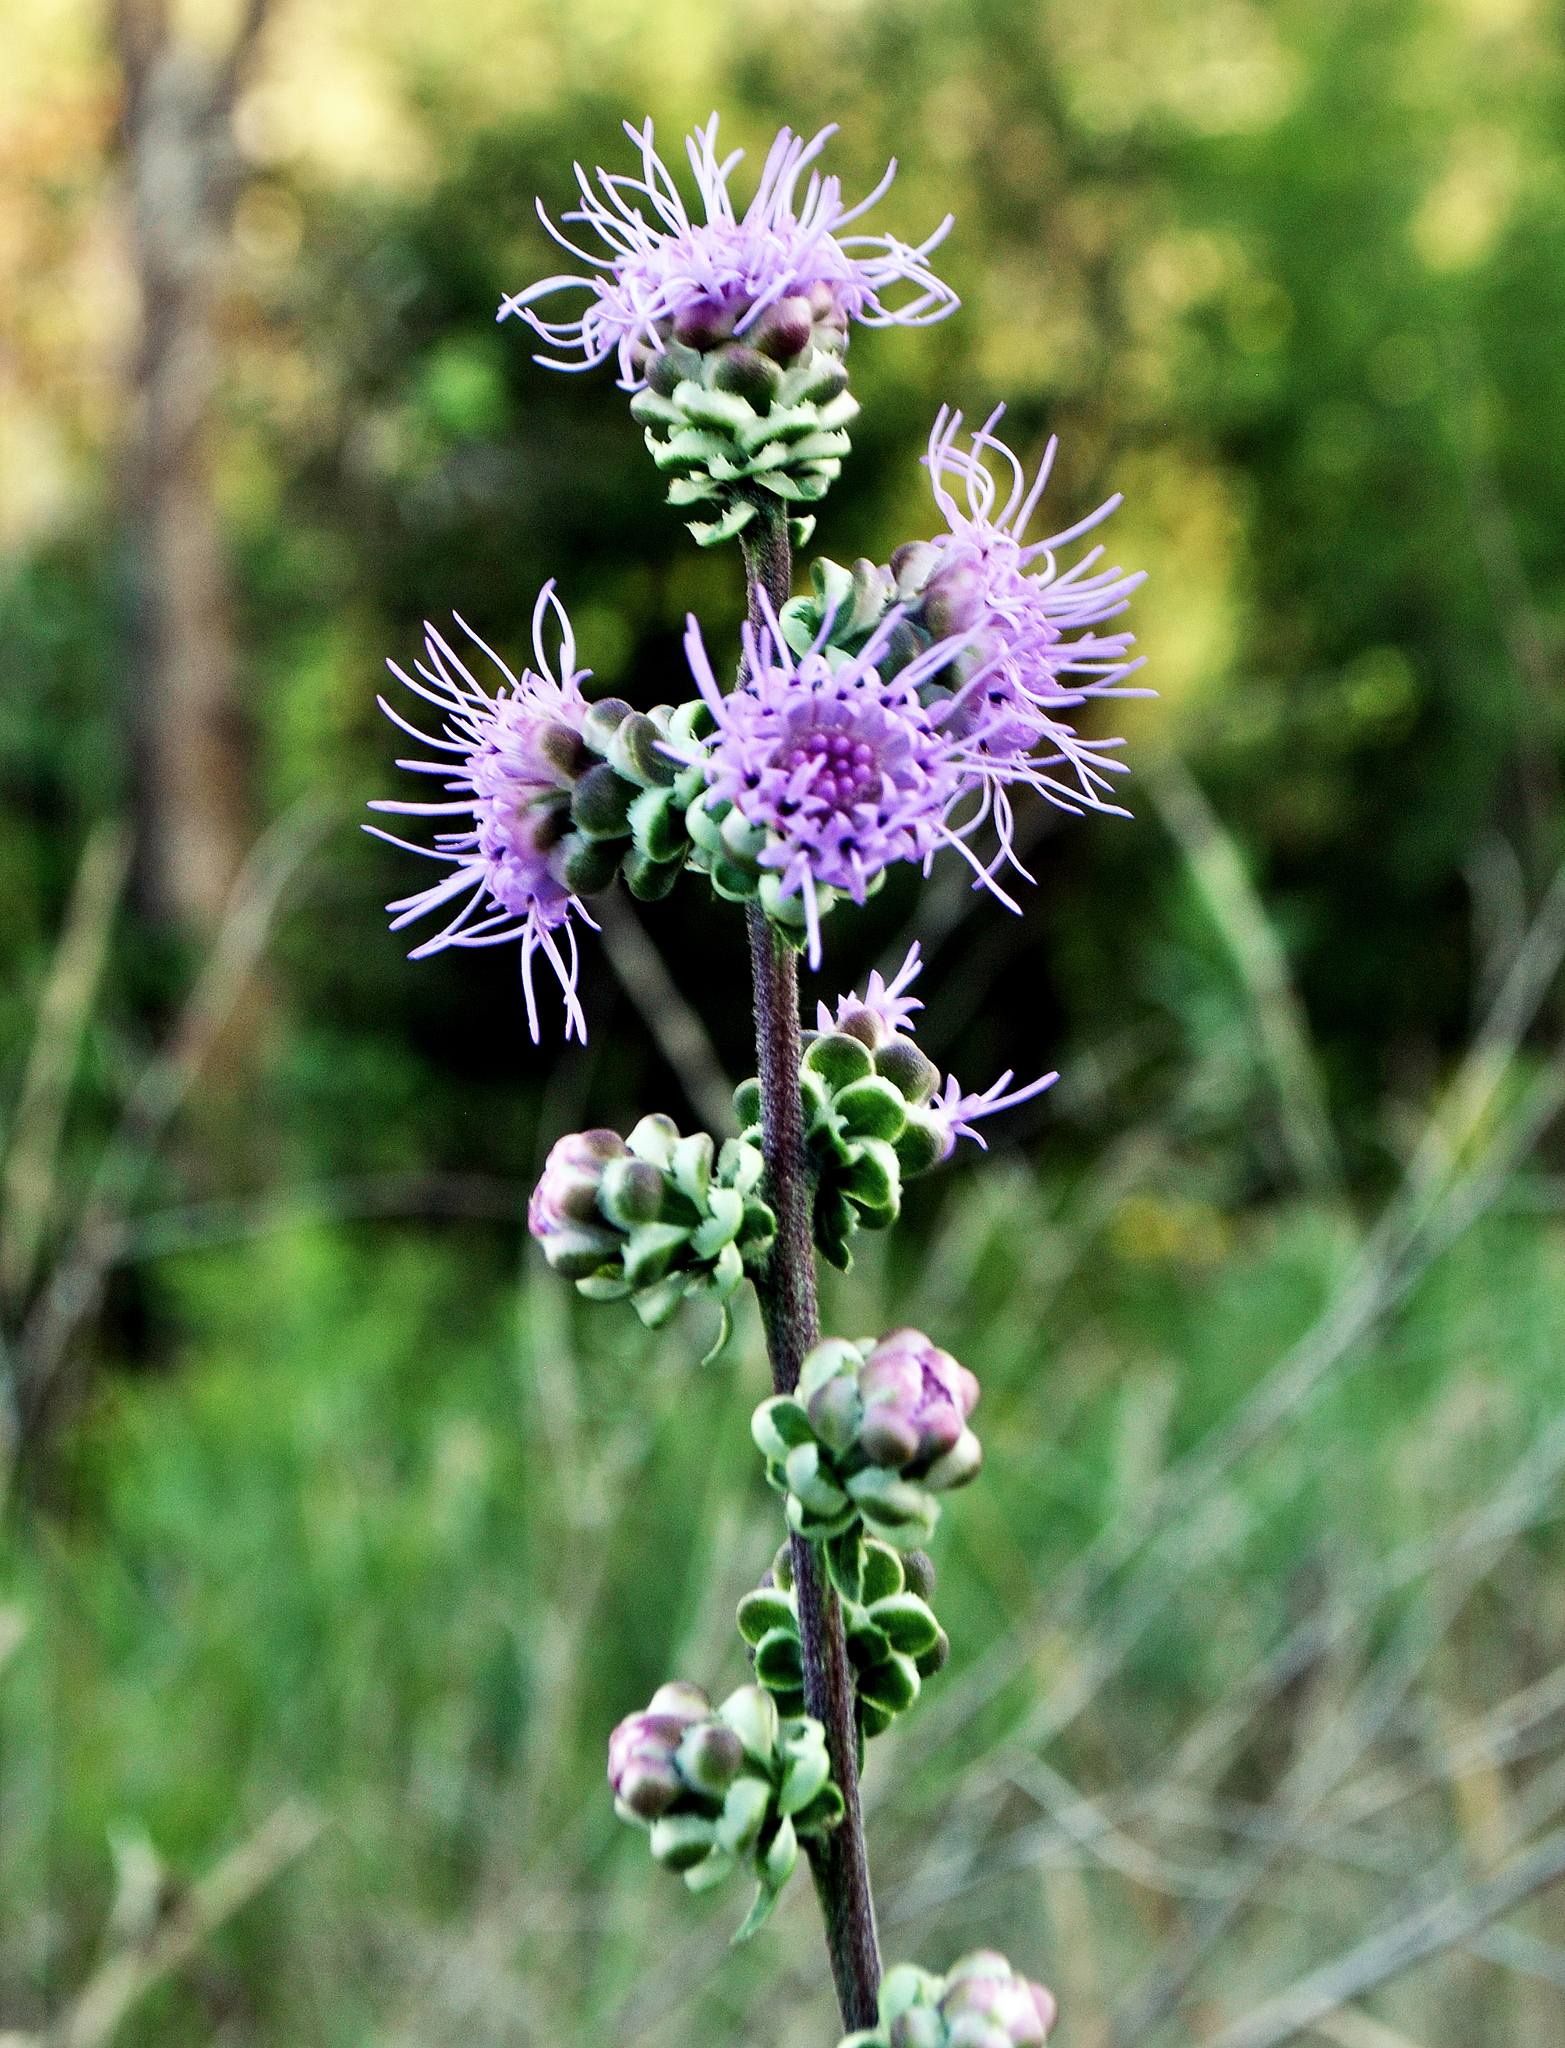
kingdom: Plantae
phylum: Tracheophyta
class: Magnoliopsida
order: Asterales
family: Asteraceae
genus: Liatris
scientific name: Liatris aspera
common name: Lacerate blazing-star
